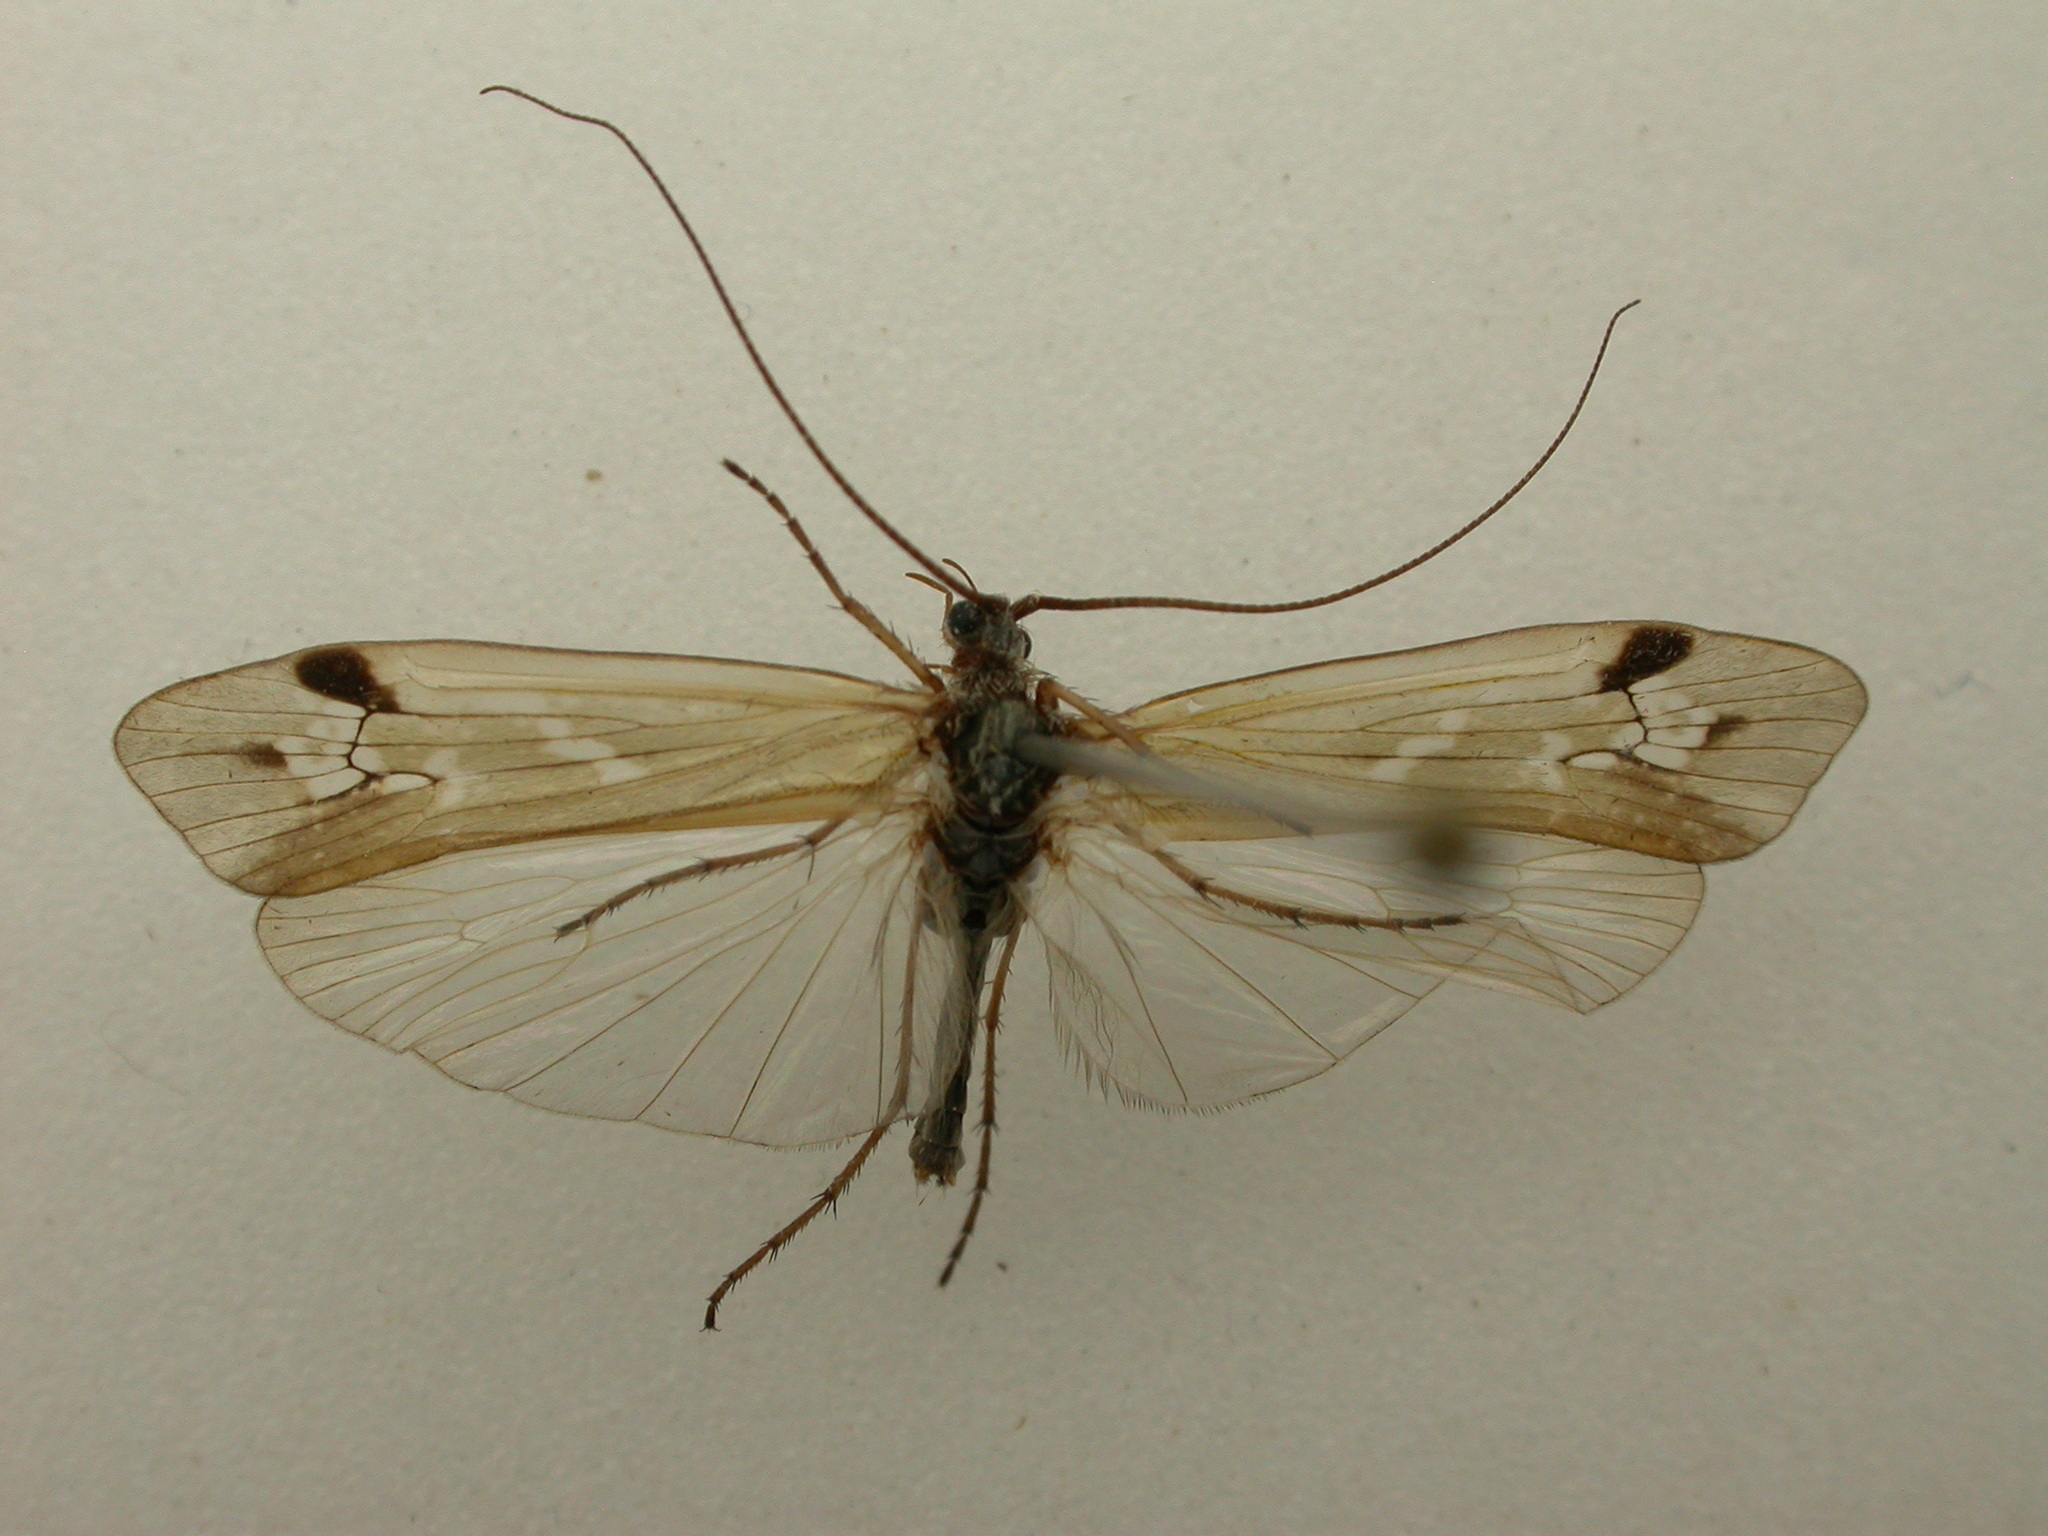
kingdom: Animalia
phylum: Arthropoda
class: Insecta
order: Trichoptera
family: Limnephilidae
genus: Limnephilus
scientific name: Limnephilus binotatus
